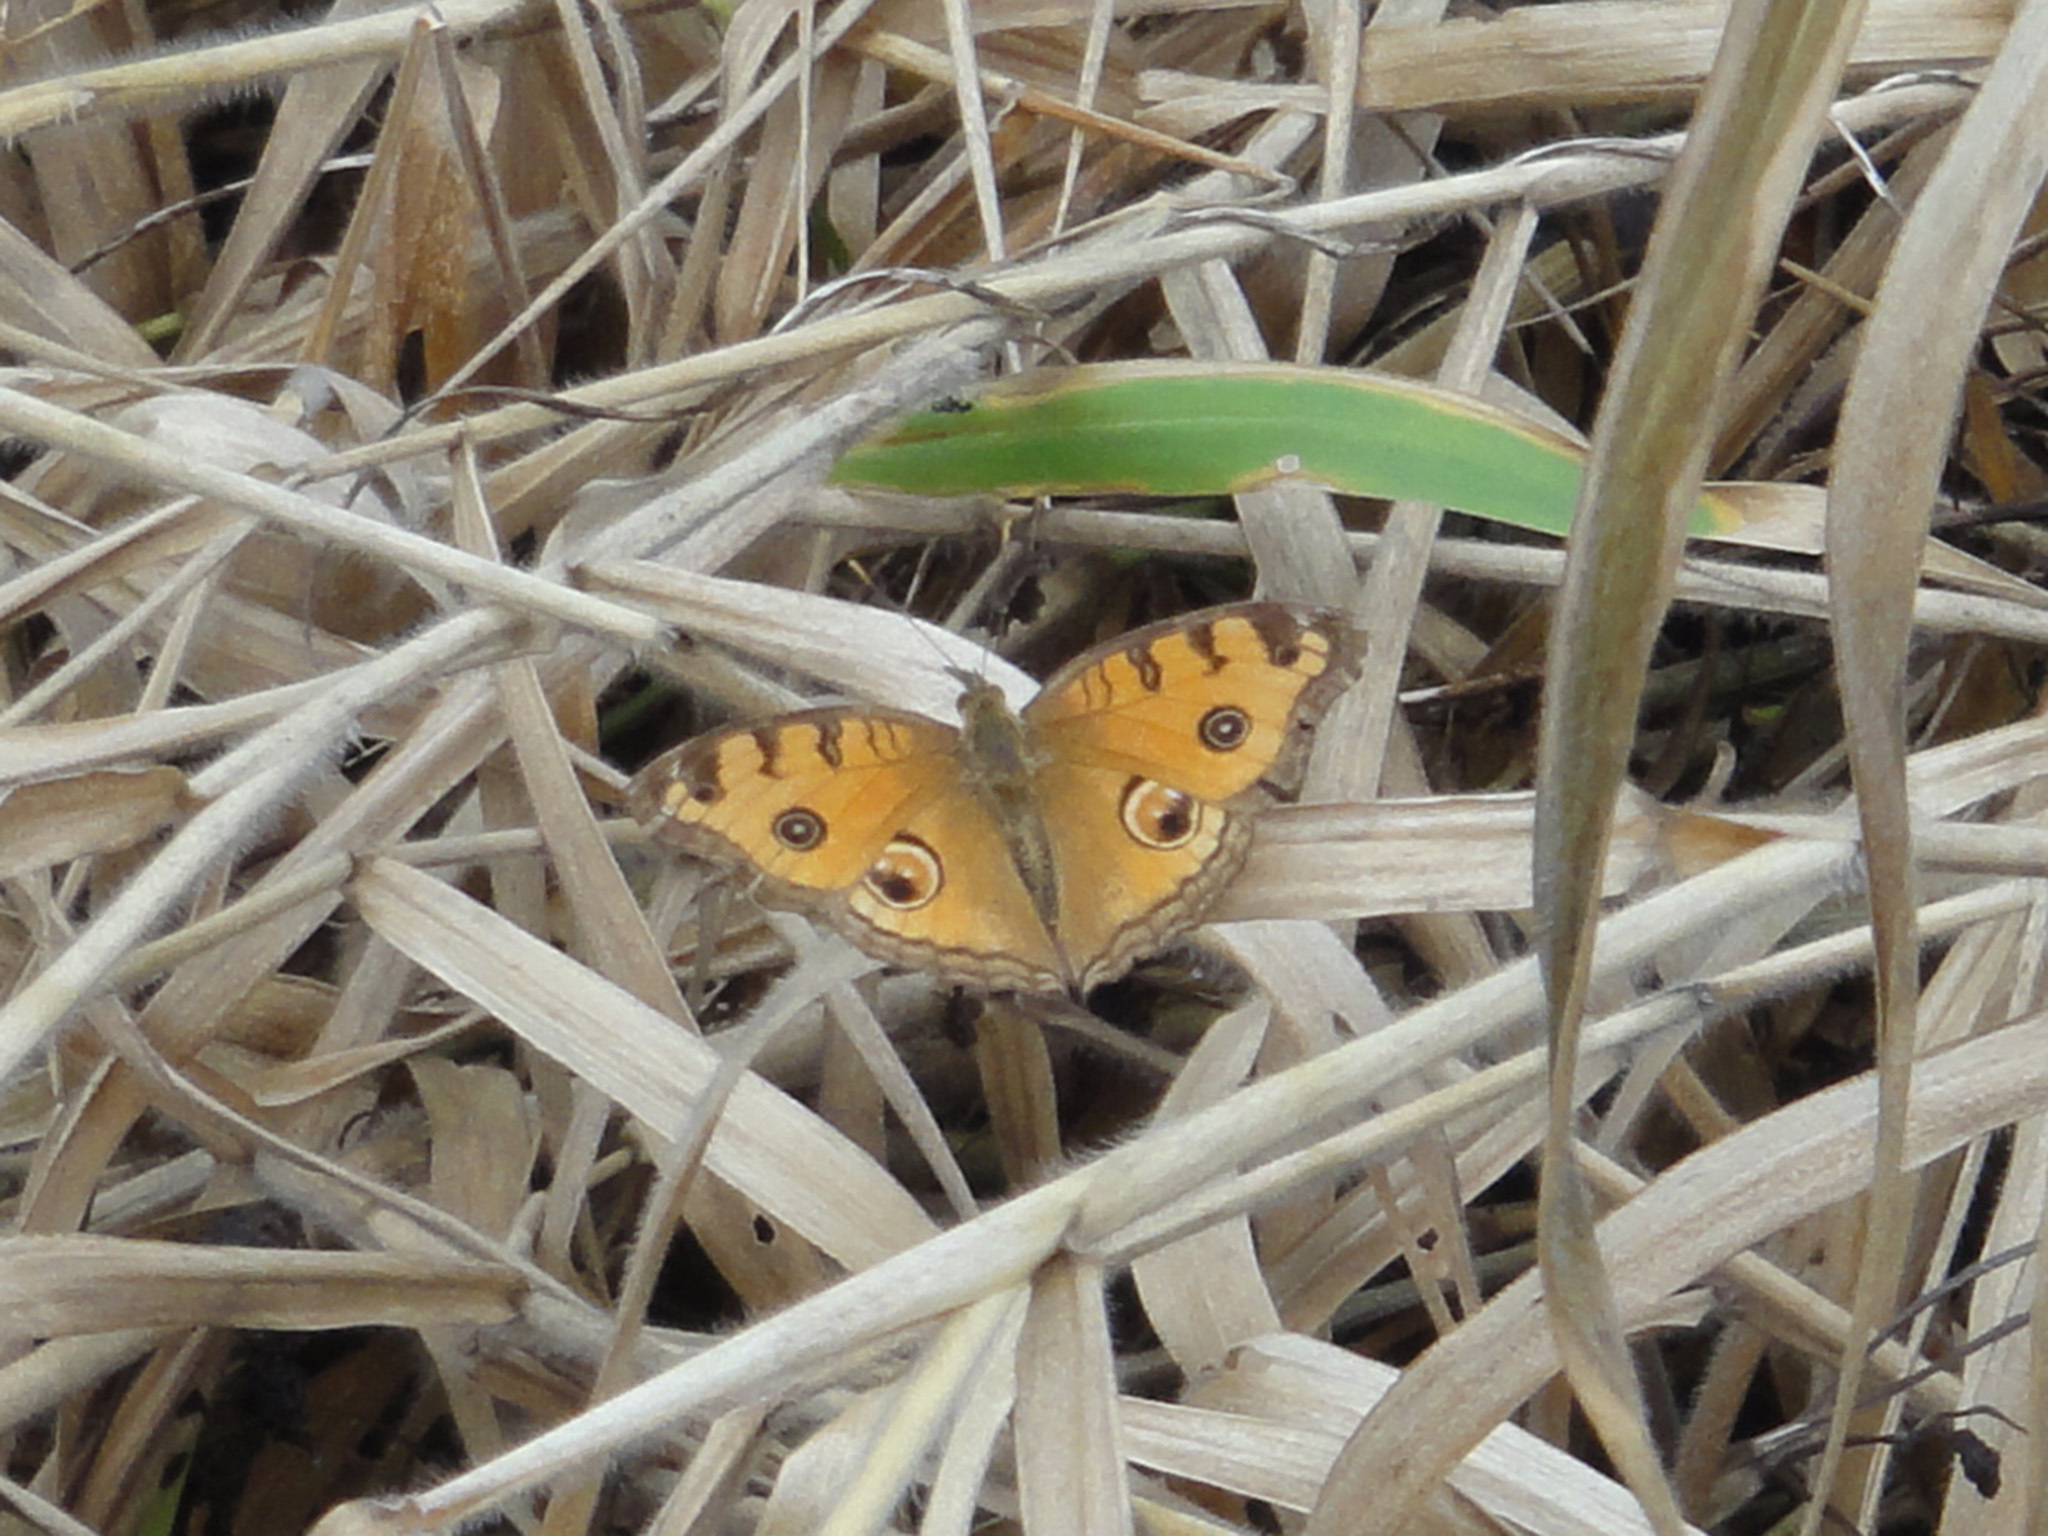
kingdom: Animalia
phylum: Arthropoda
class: Insecta
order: Lepidoptera
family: Nymphalidae
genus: Junonia
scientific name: Junonia almana
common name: Peacock pansy
